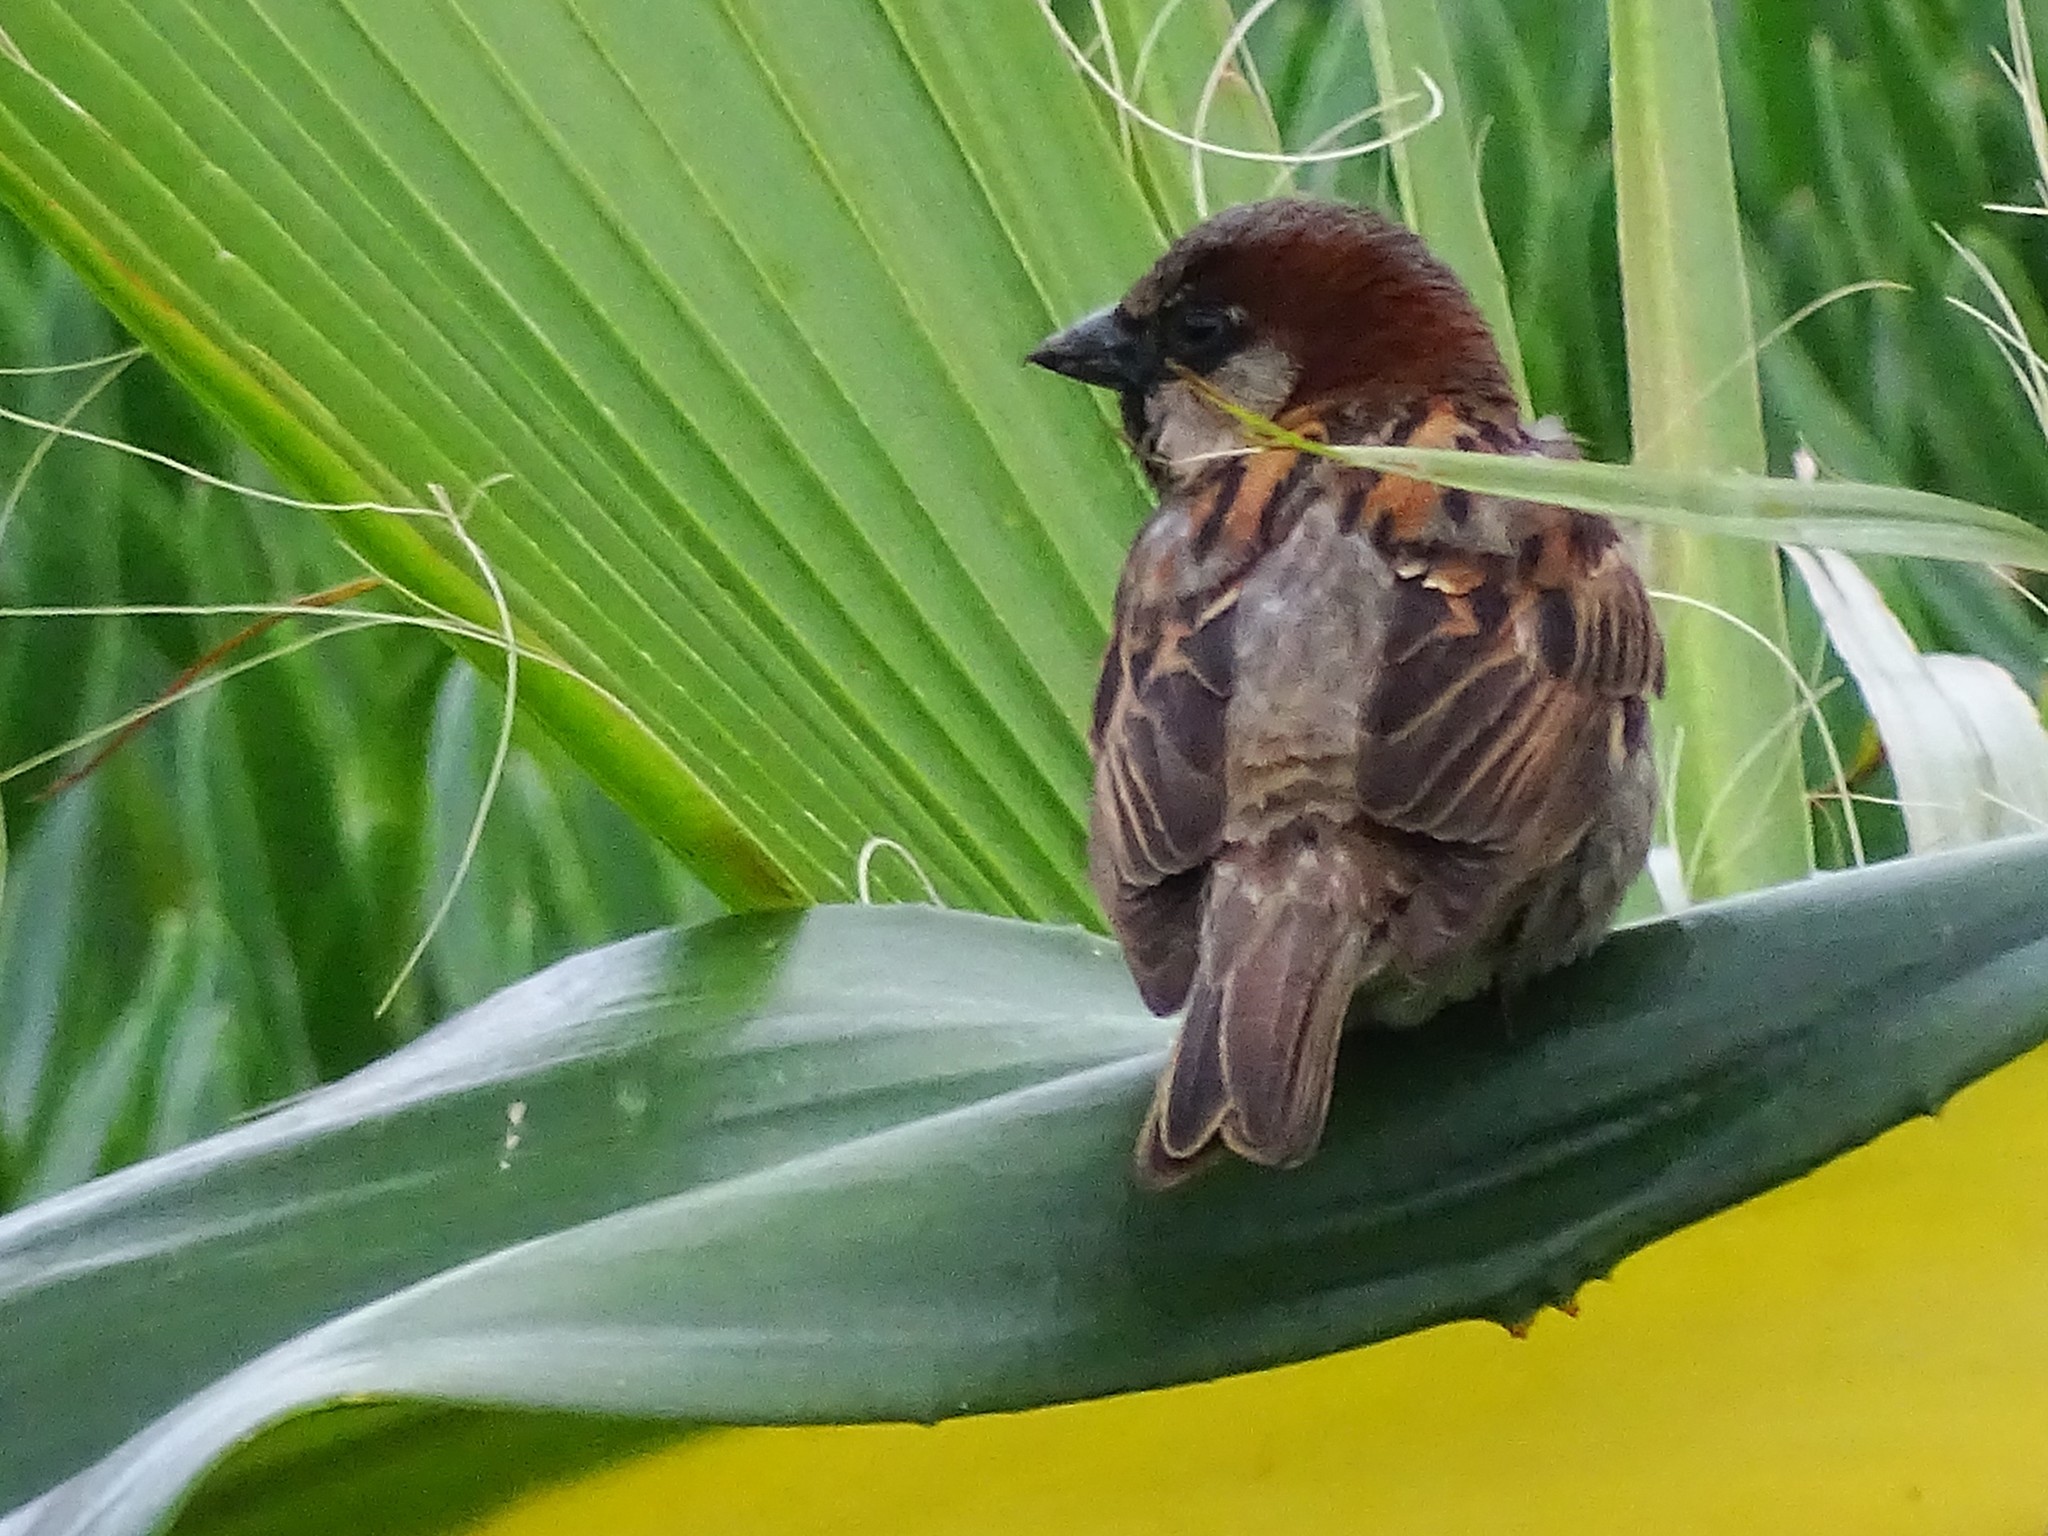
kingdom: Animalia
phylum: Chordata
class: Aves
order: Passeriformes
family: Passeridae
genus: Passer
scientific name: Passer domesticus
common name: House sparrow
